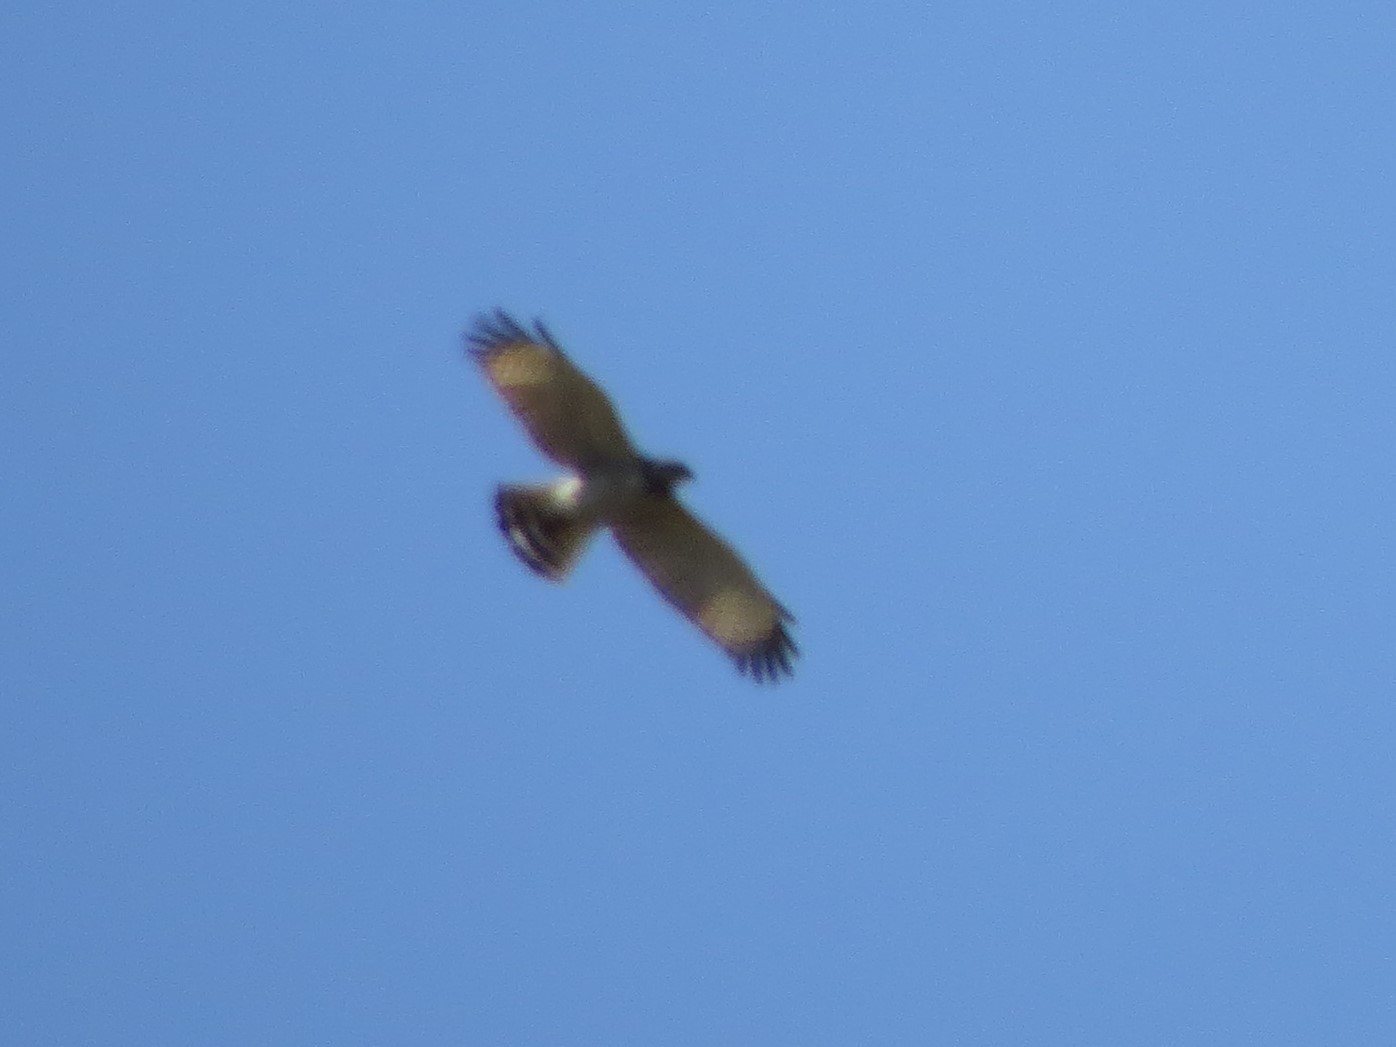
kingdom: Animalia
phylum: Chordata
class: Aves
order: Accipitriformes
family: Accipitridae
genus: Rupornis
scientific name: Rupornis magnirostris
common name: Roadside hawk
